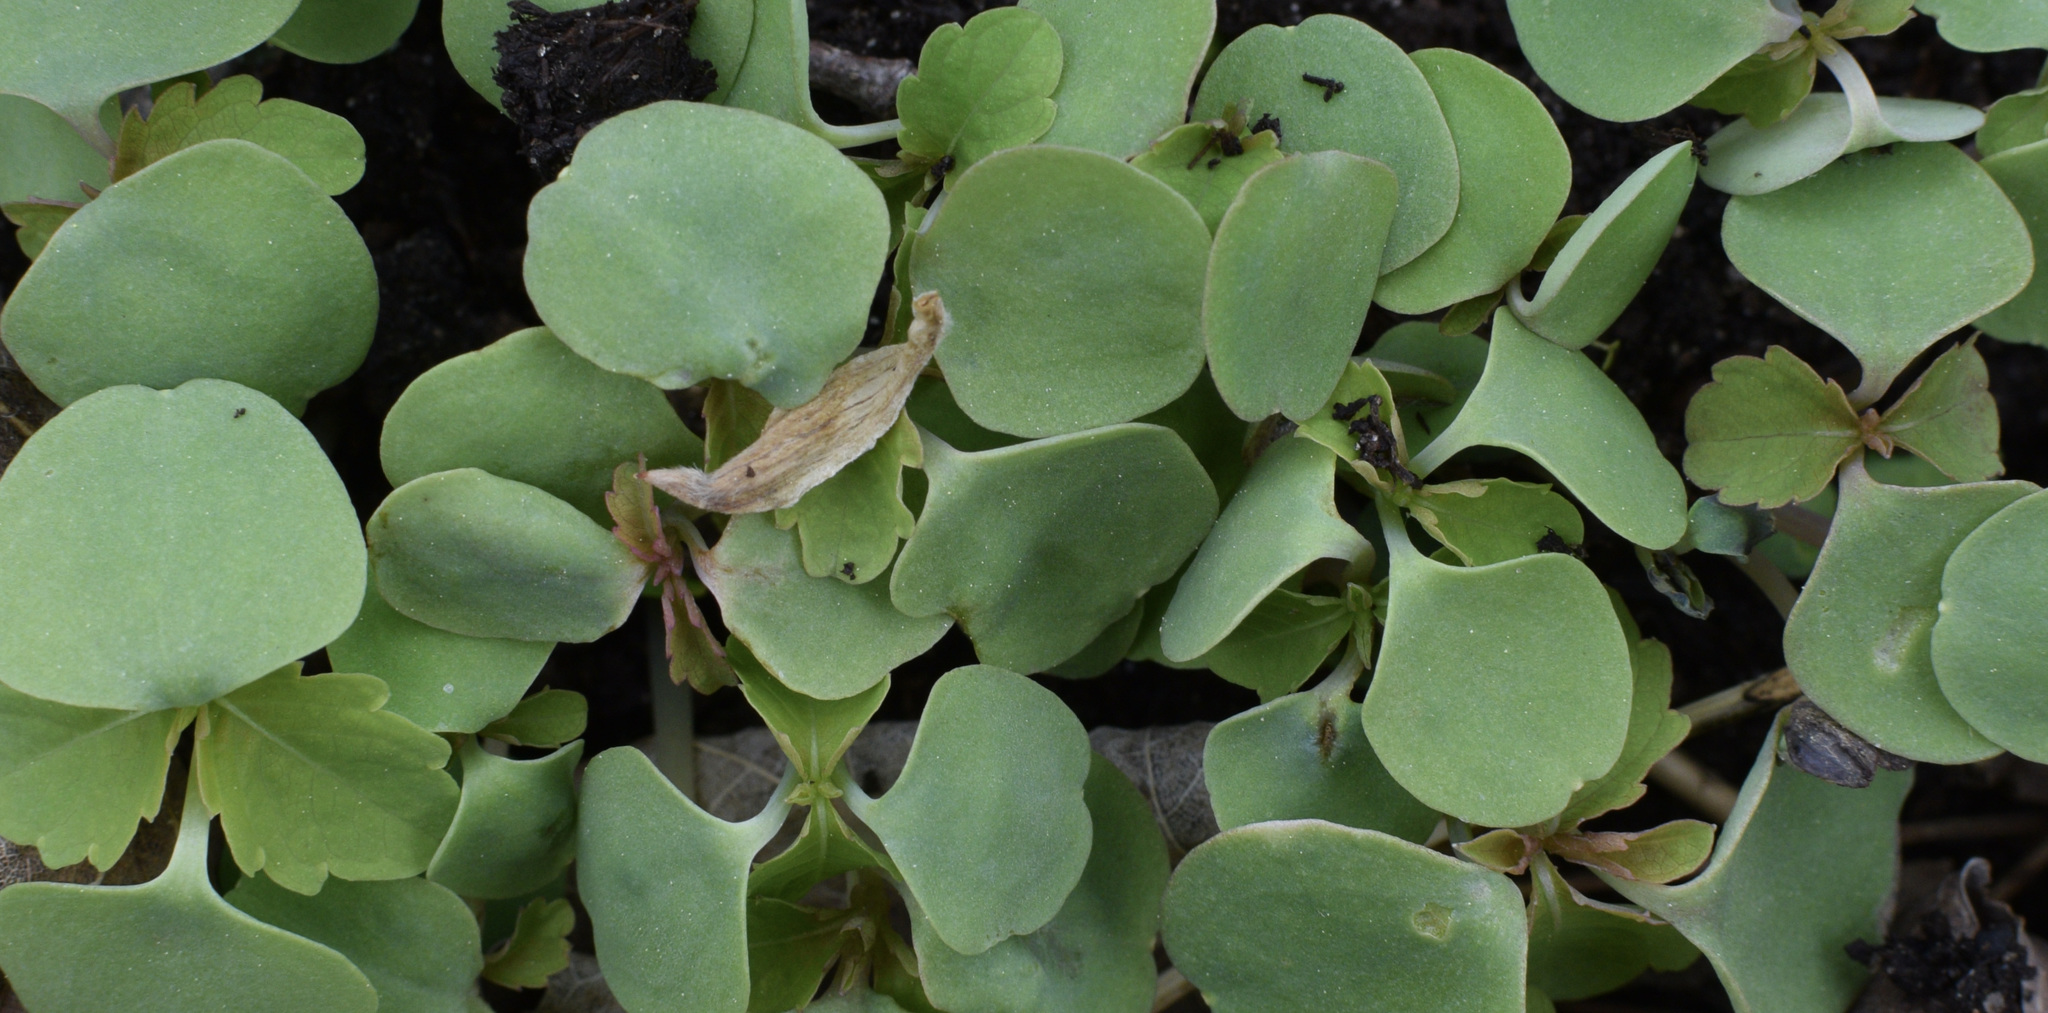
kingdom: Plantae
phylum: Tracheophyta
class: Magnoliopsida
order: Ericales
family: Balsaminaceae
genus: Impatiens
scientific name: Impatiens
